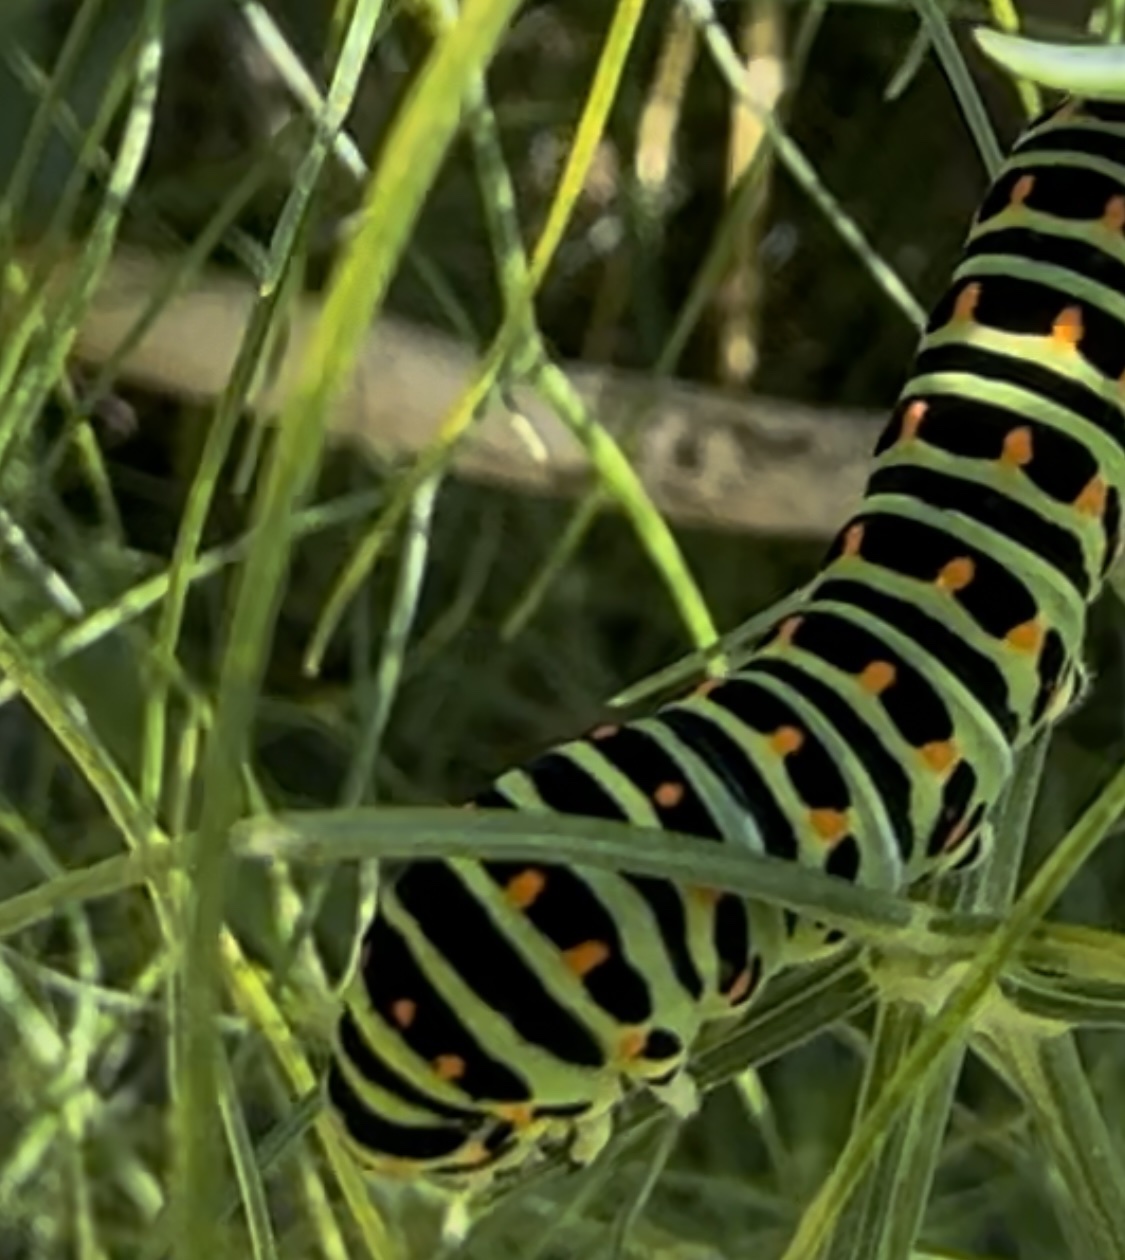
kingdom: Animalia
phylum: Arthropoda
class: Insecta
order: Lepidoptera
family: Papilionidae
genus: Papilio
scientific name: Papilio machaon
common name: Swallowtail
